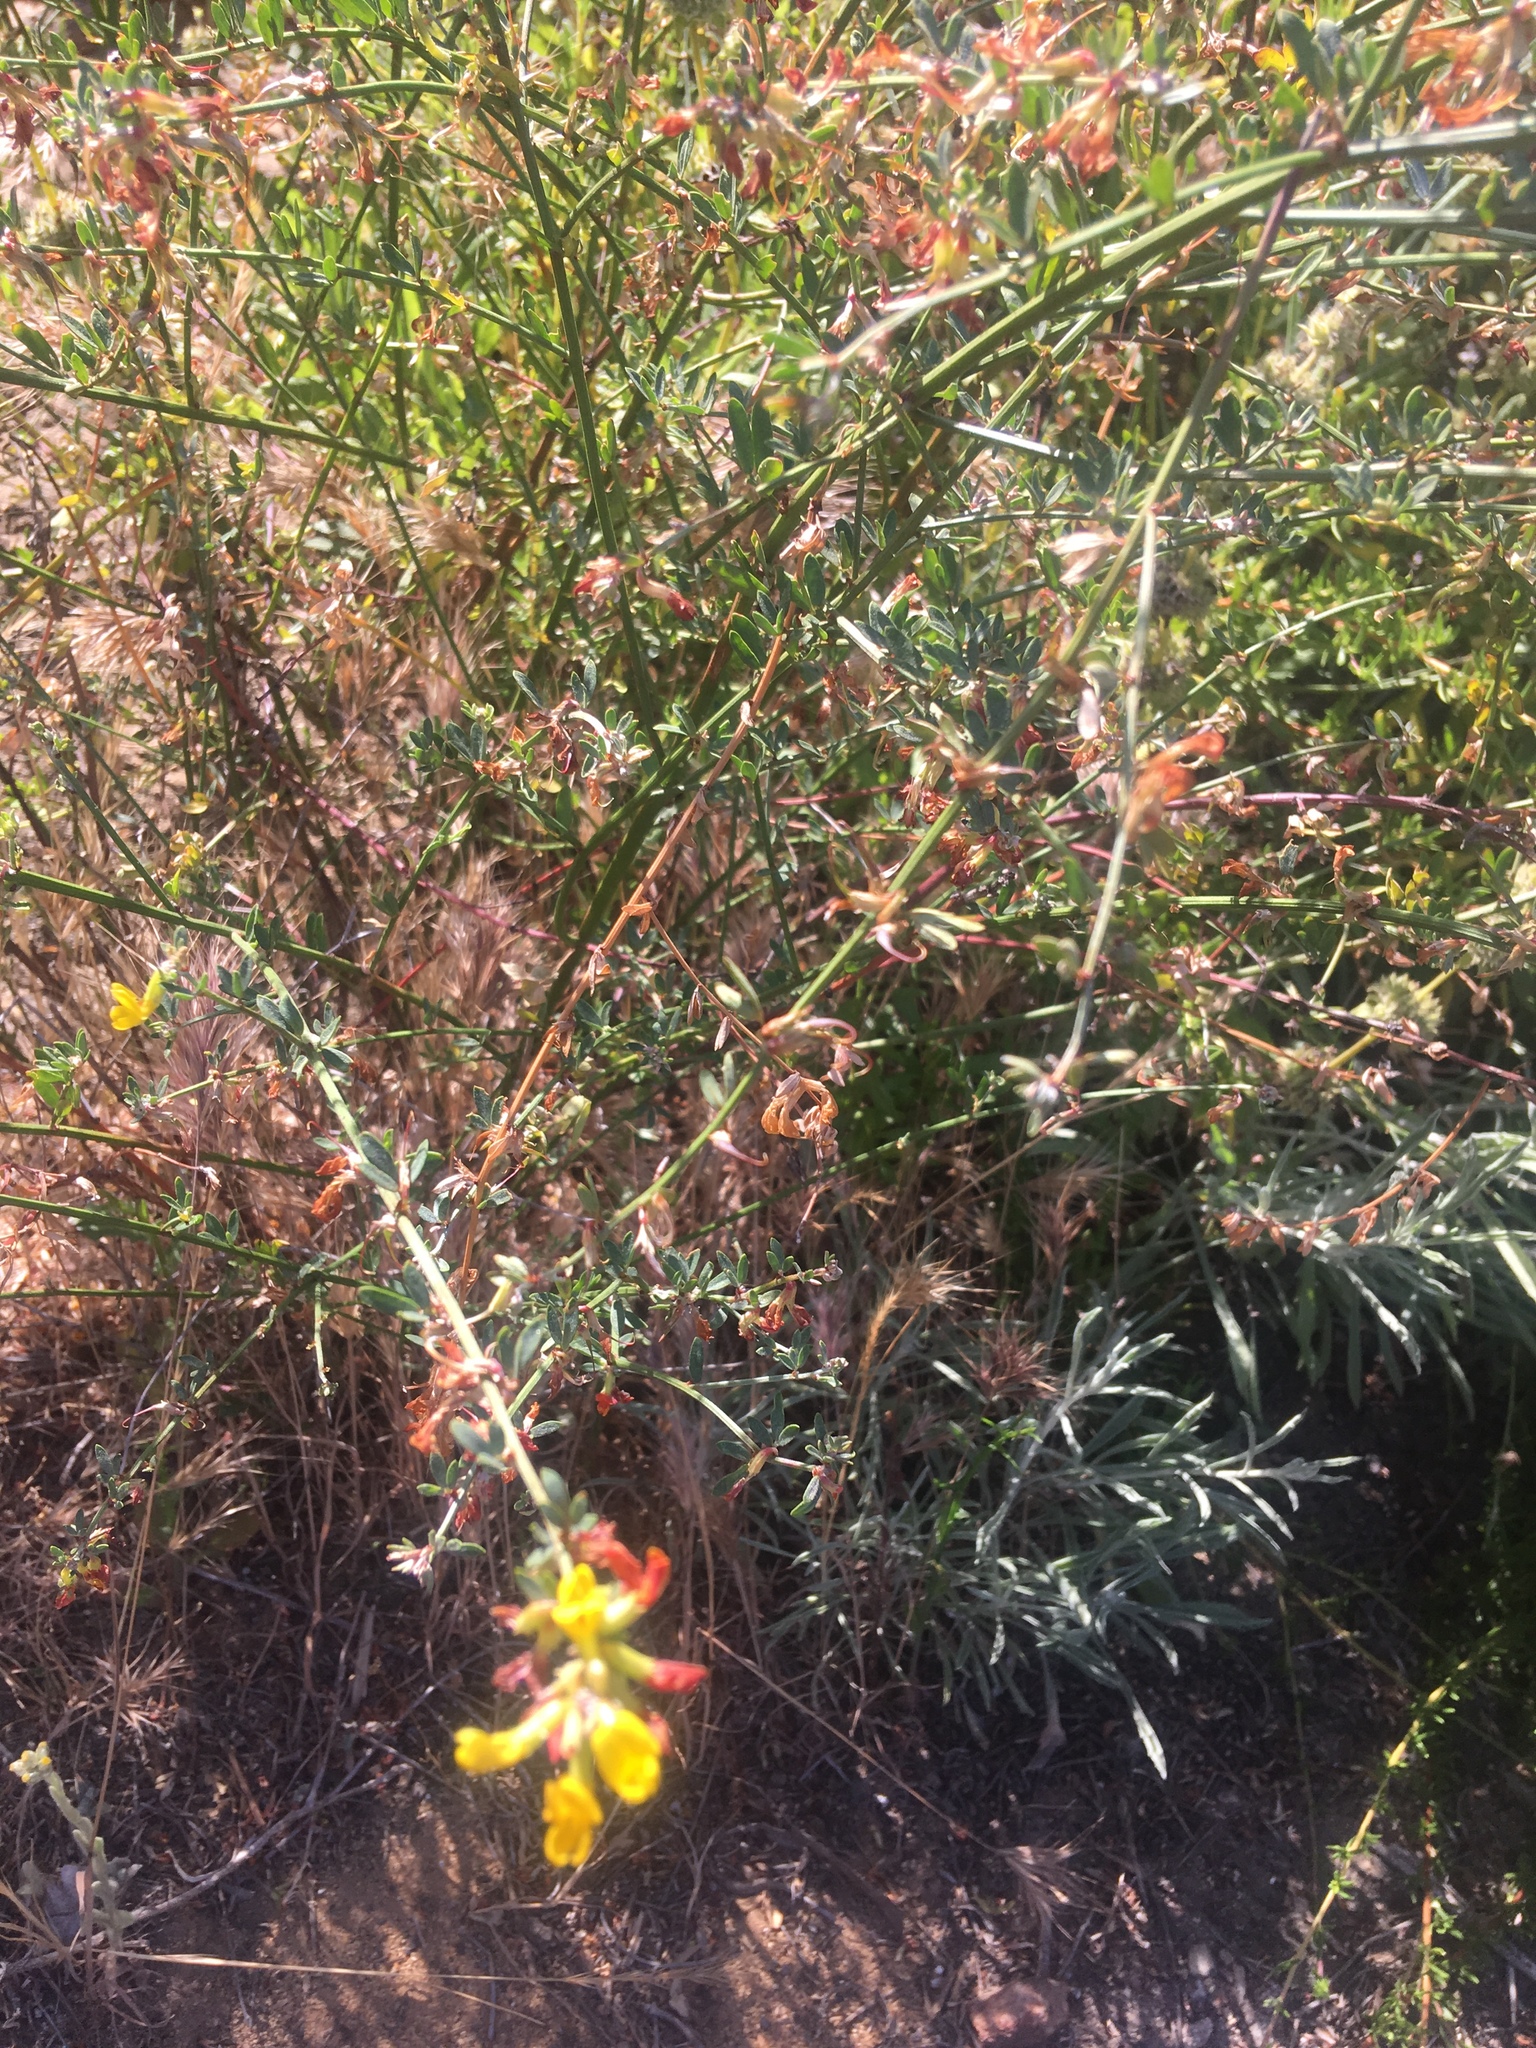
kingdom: Plantae
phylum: Tracheophyta
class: Magnoliopsida
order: Fabales
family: Fabaceae
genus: Acmispon
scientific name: Acmispon glaber
